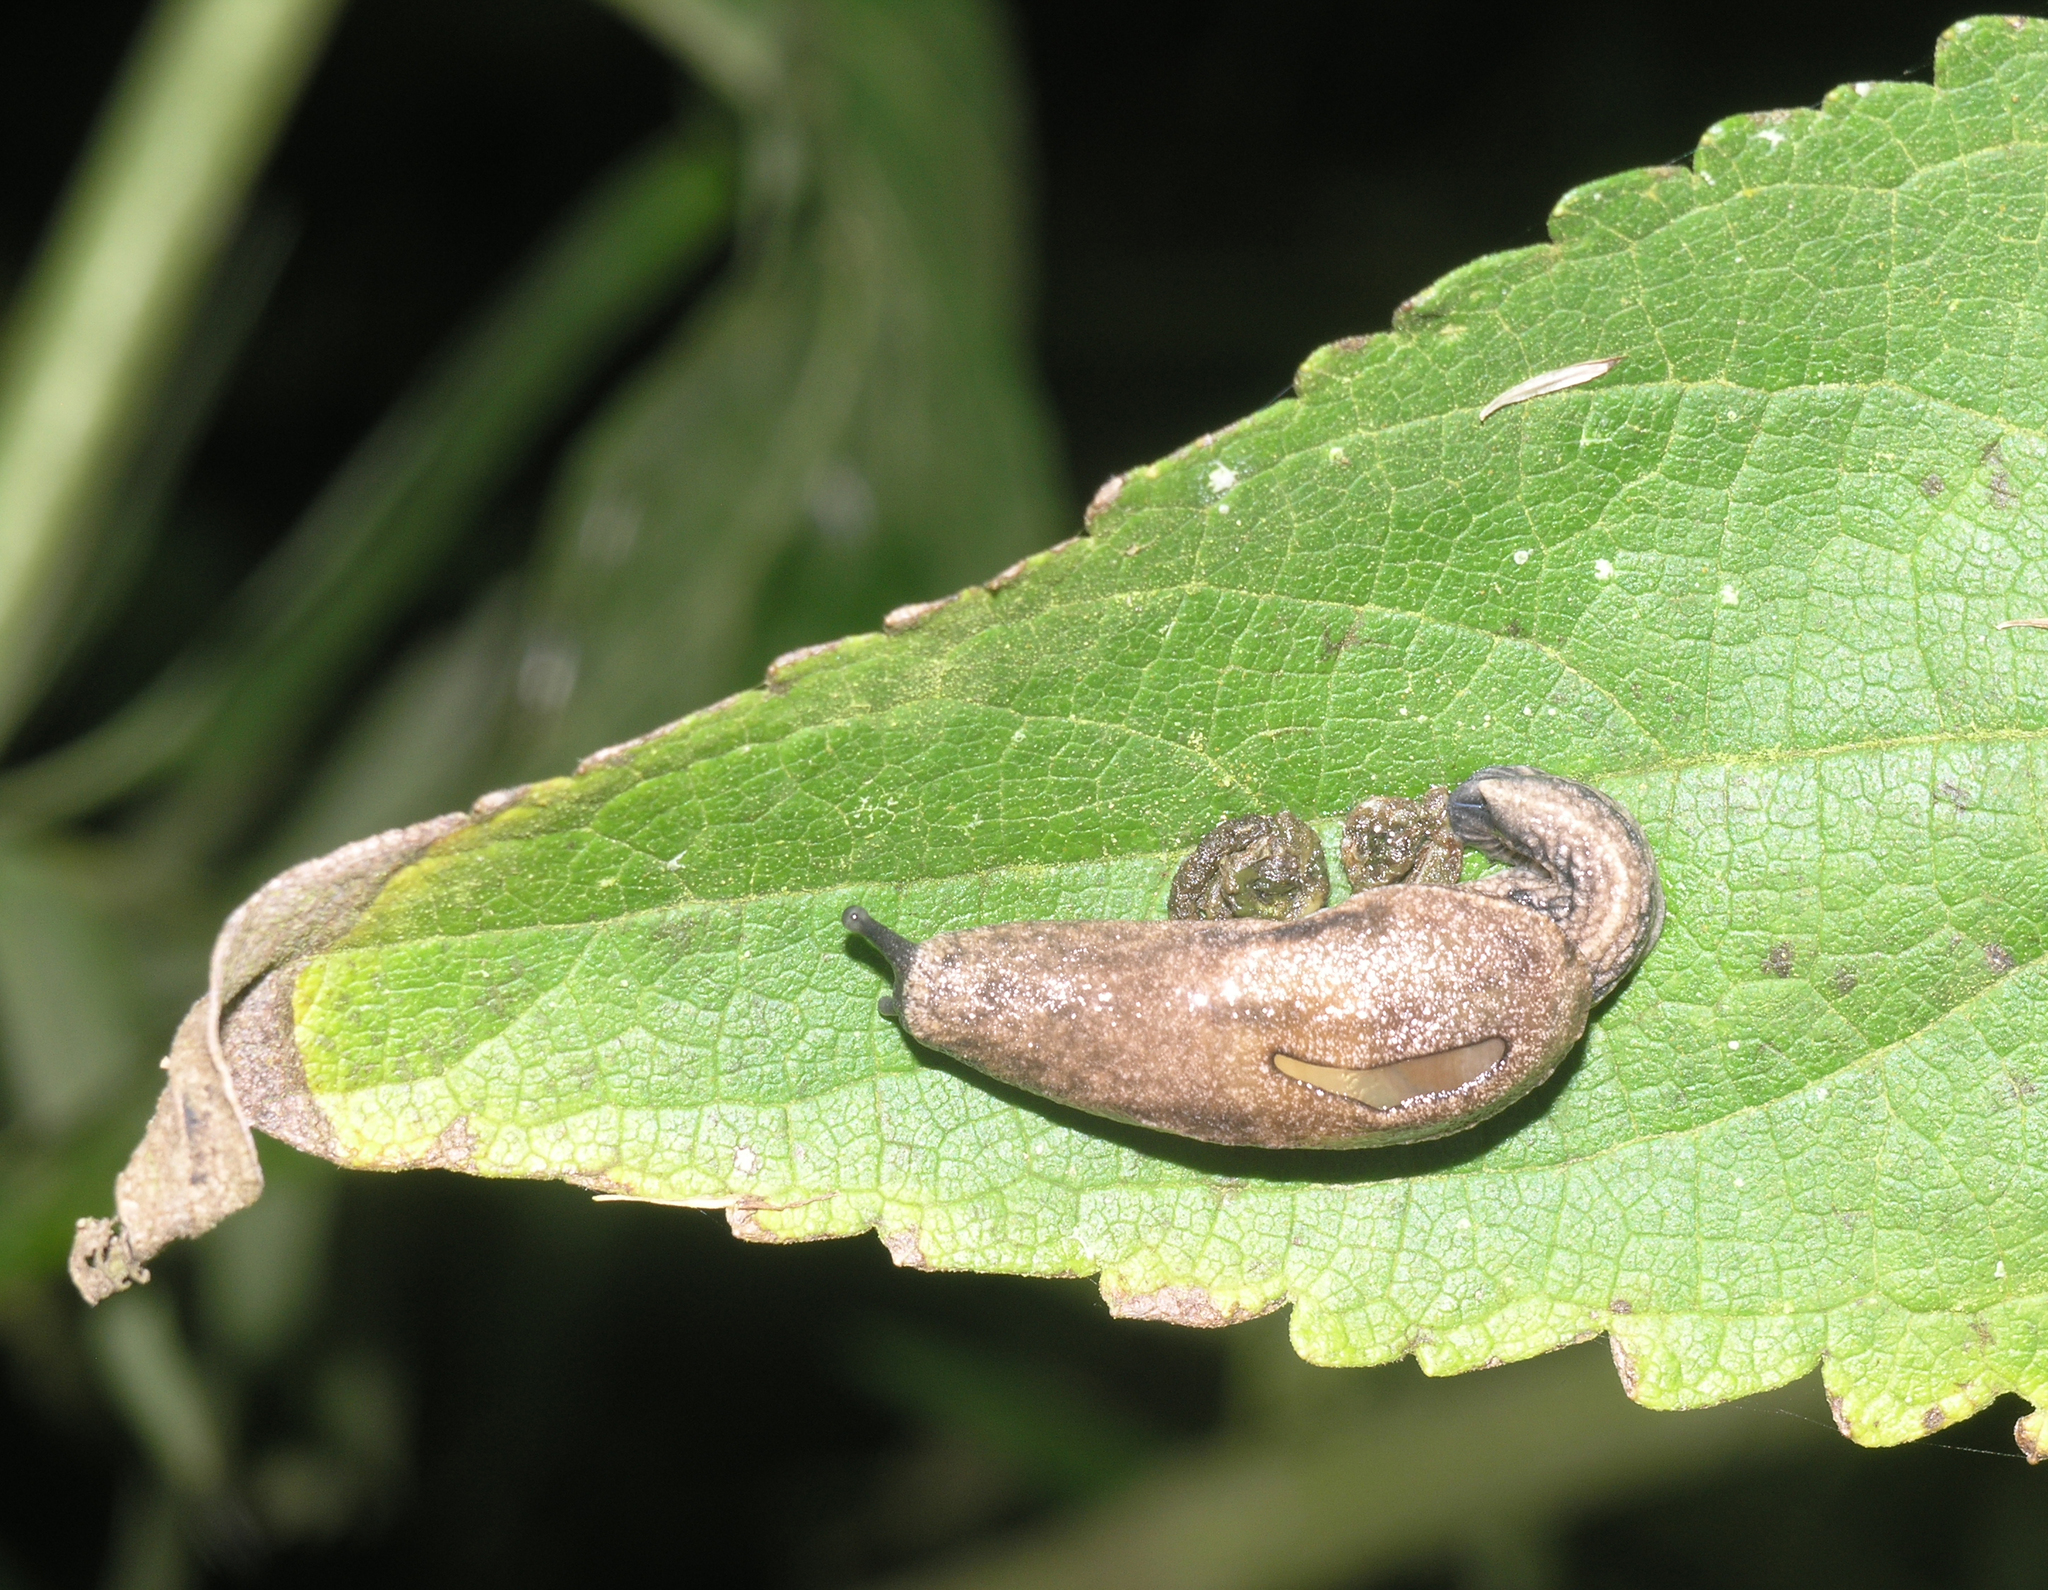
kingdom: Animalia
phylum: Mollusca
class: Gastropoda
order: Stylommatophora
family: Ariophantidae
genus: Parmarion
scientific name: Parmarion martensi
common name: Semi-slug
